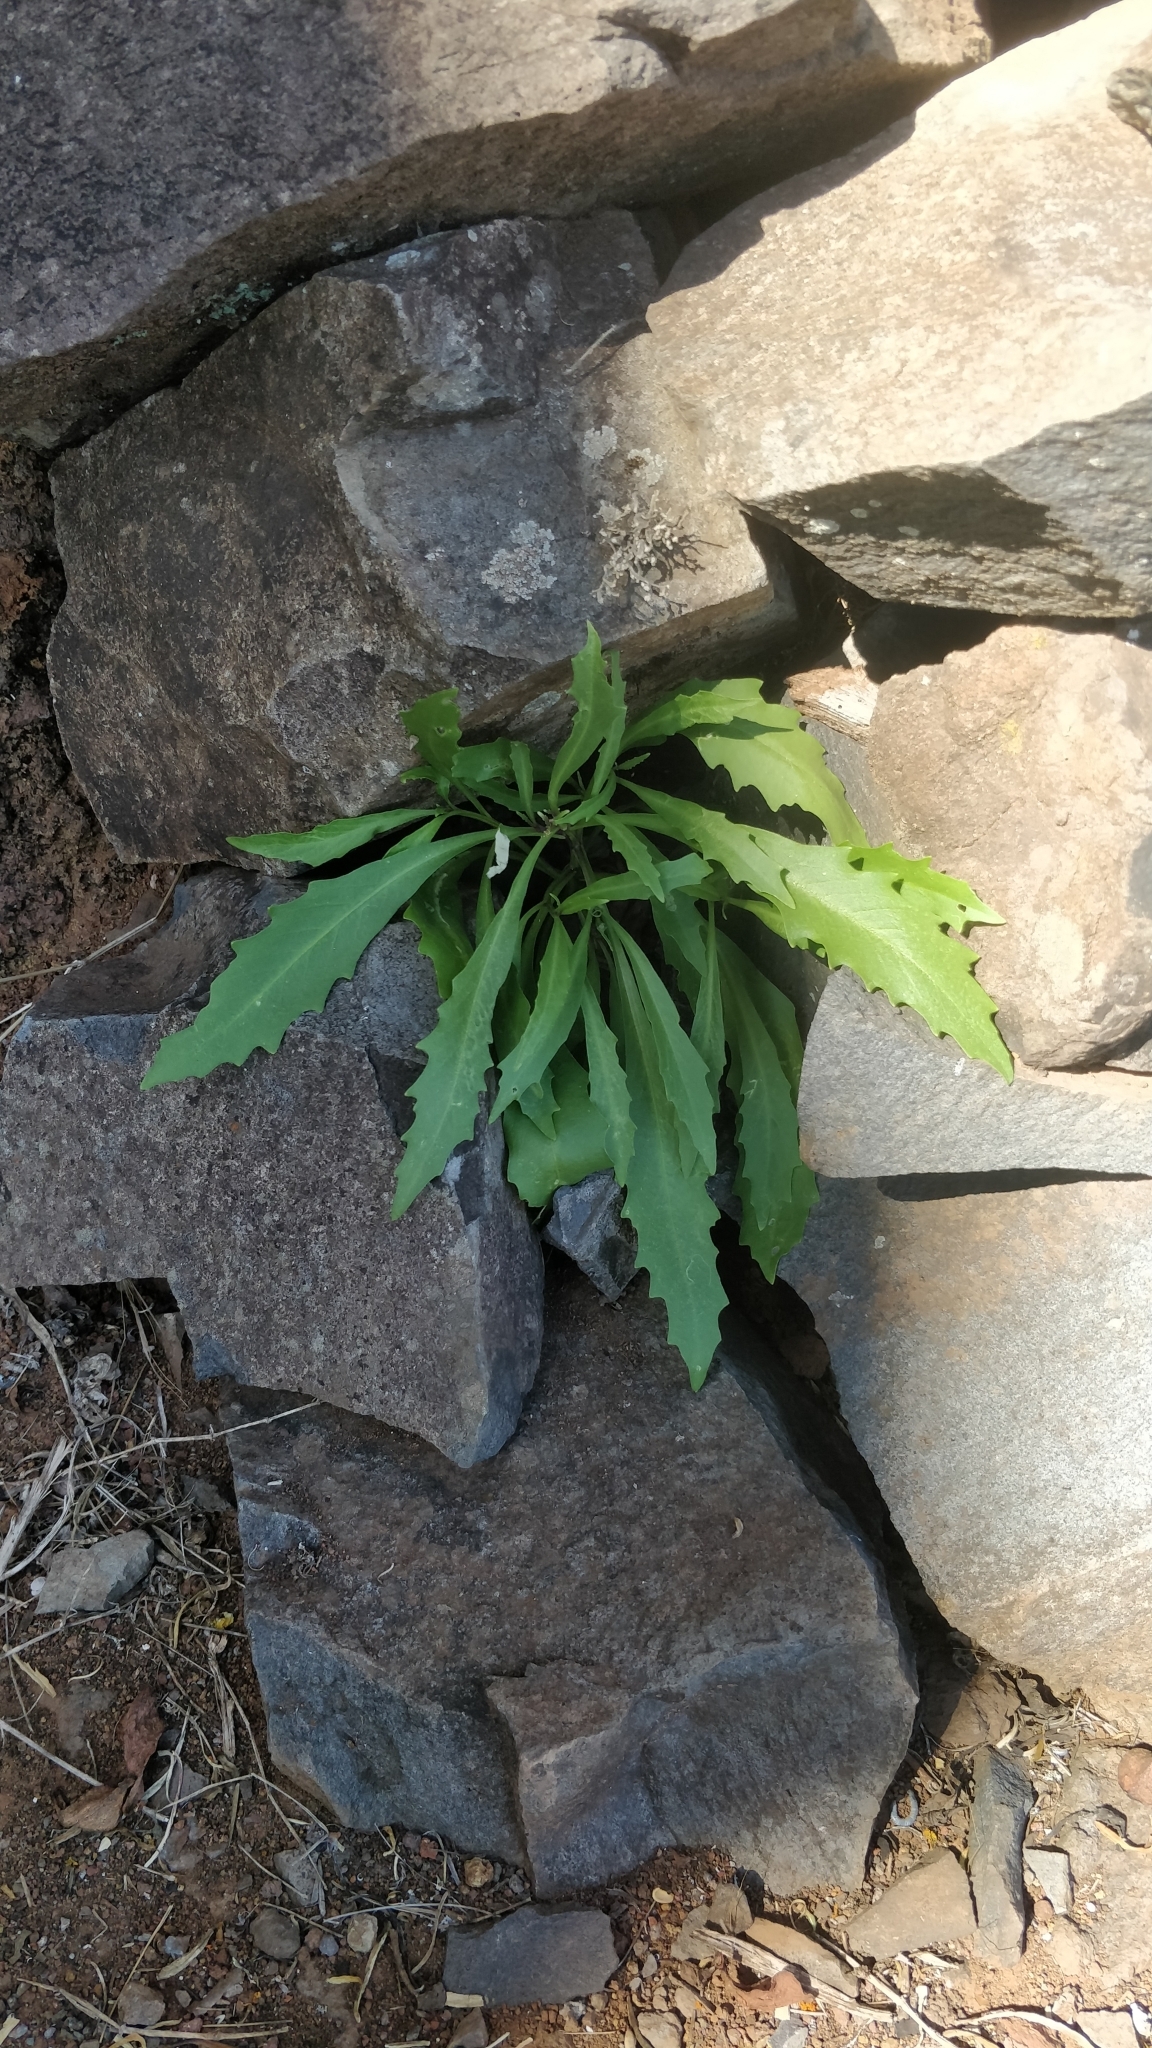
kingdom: Plantae
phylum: Tracheophyta
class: Magnoliopsida
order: Asterales
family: Asteraceae
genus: Tolpis
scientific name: Tolpis succulenta
